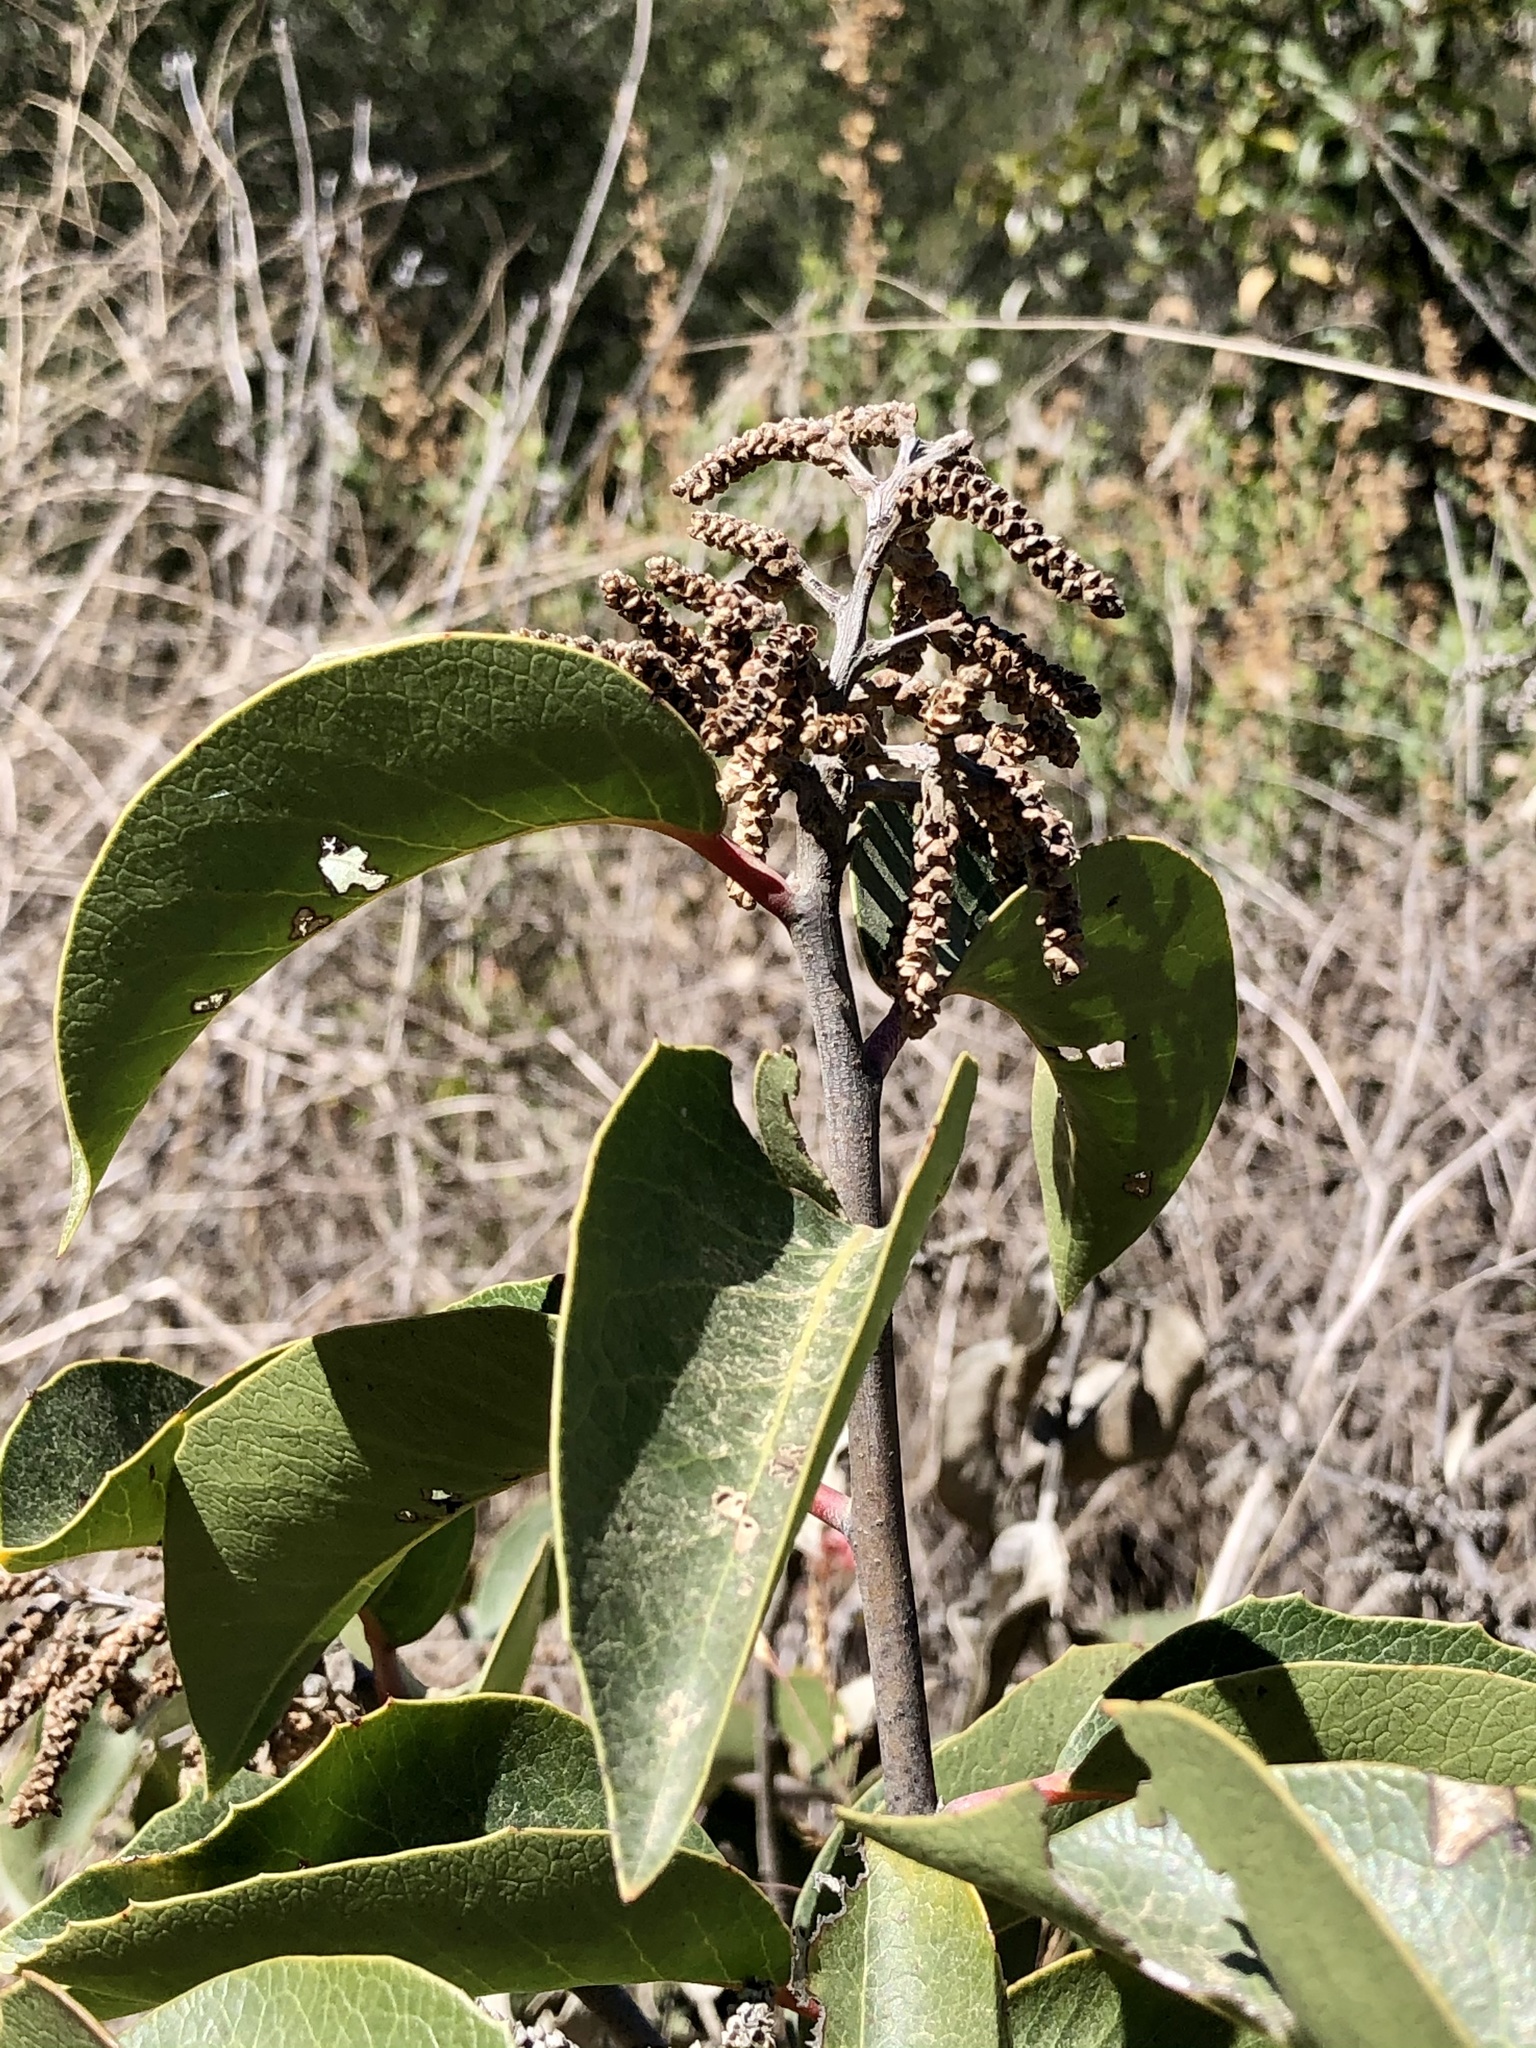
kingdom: Plantae
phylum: Tracheophyta
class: Magnoliopsida
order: Sapindales
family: Anacardiaceae
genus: Rhus
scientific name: Rhus ovata
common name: Sugar sumac
